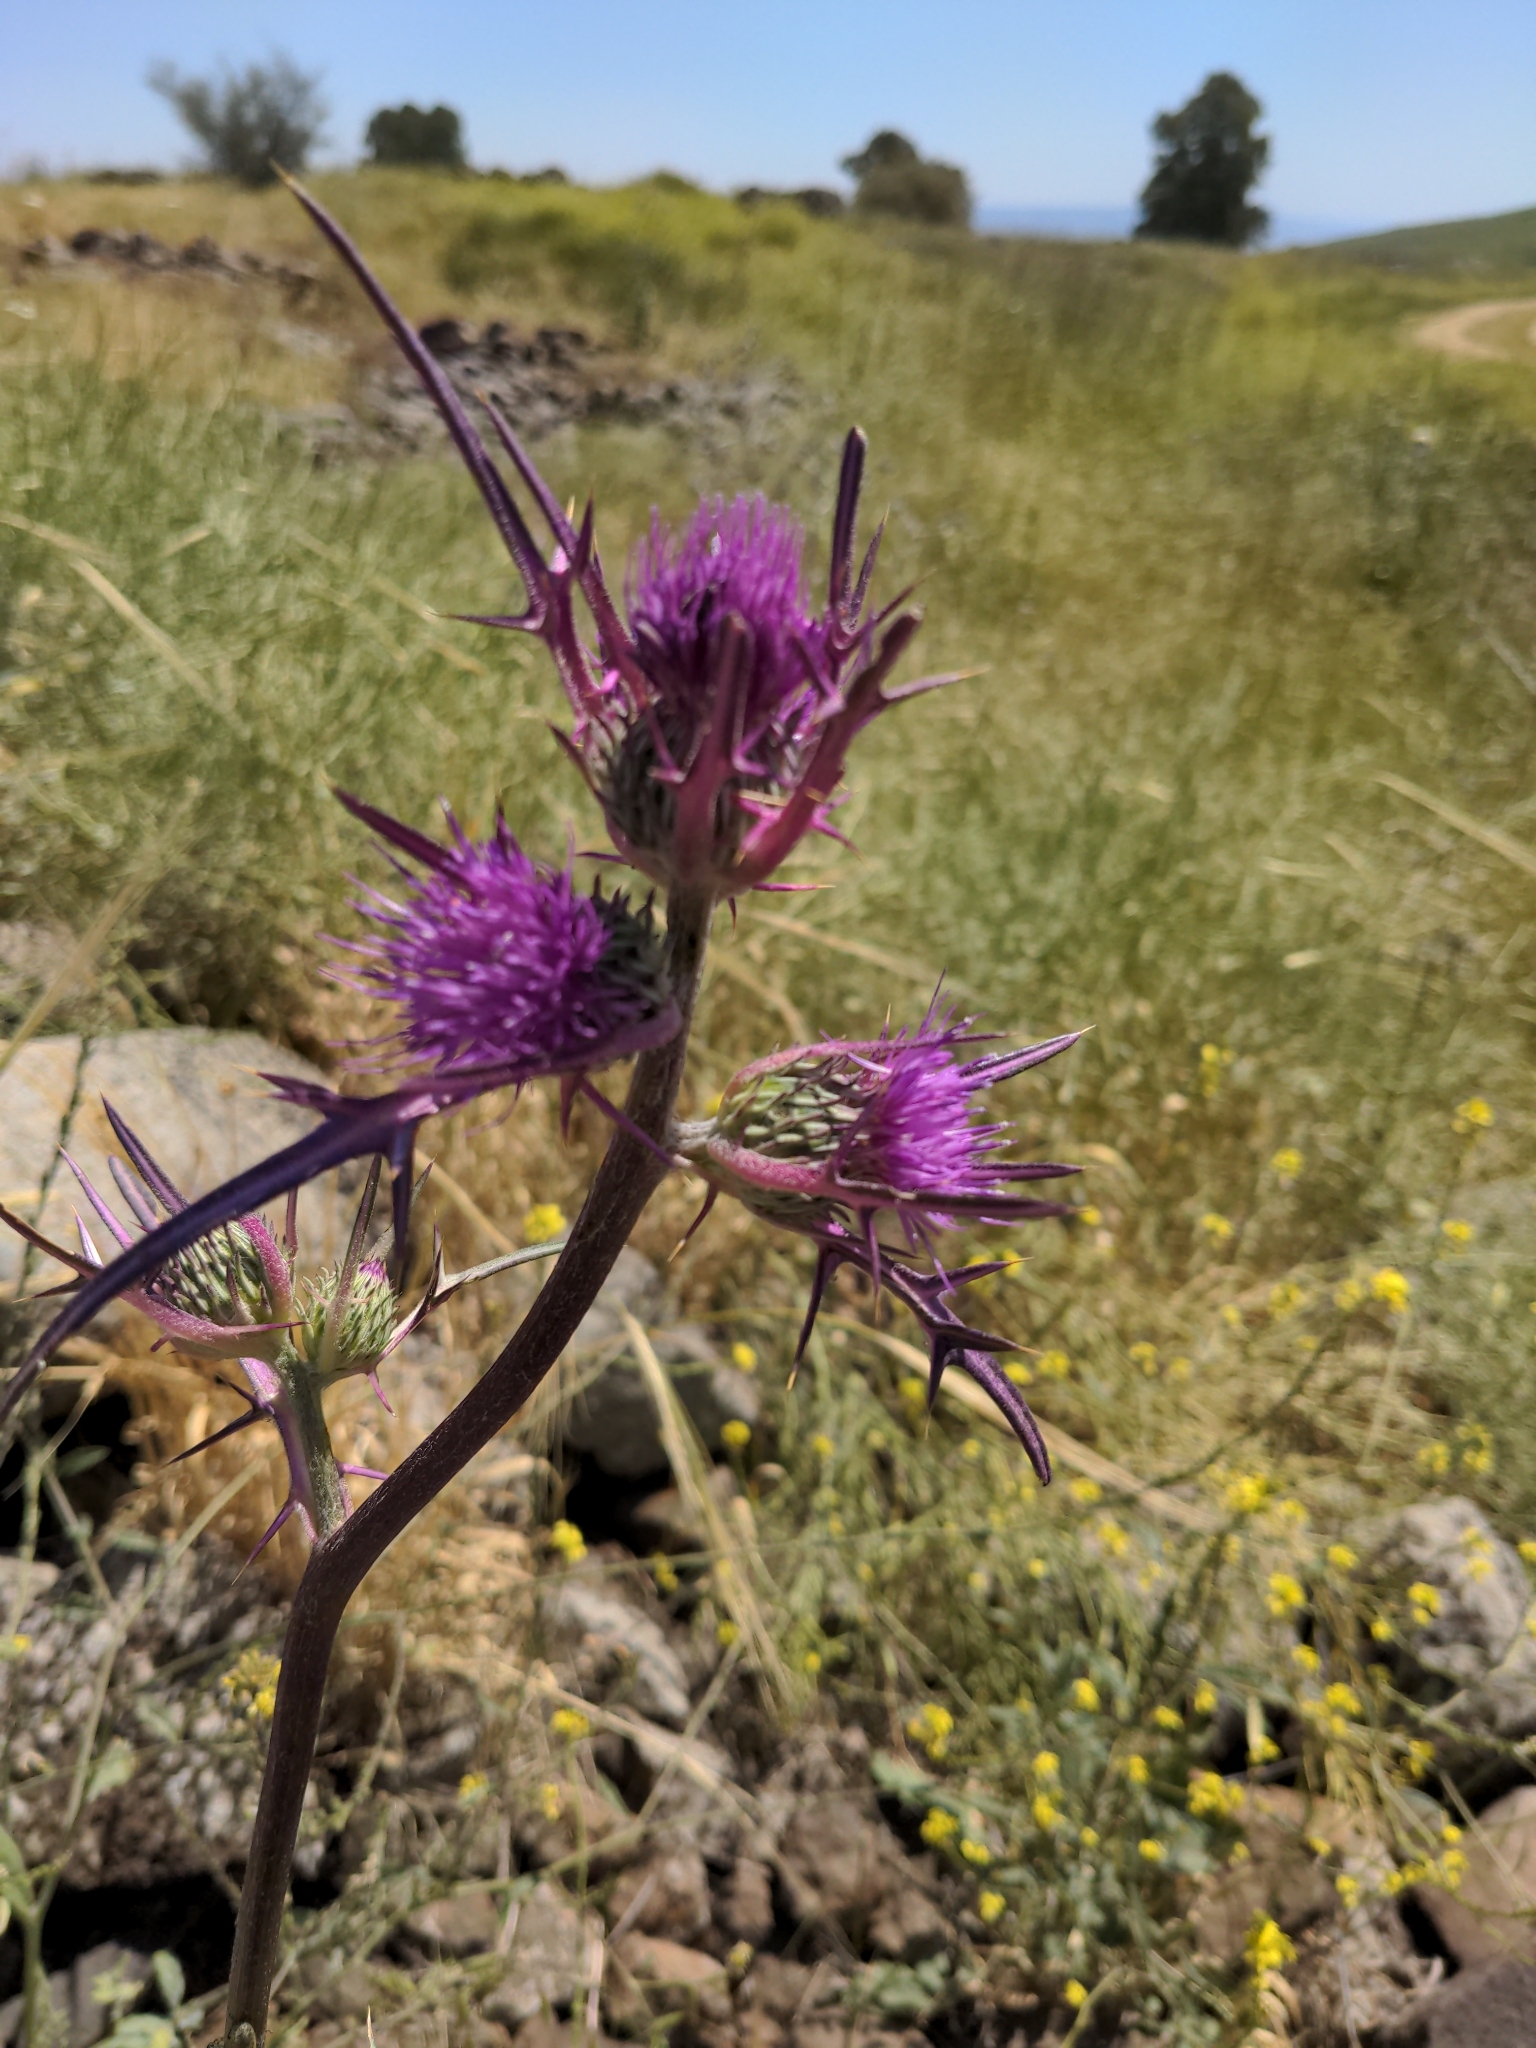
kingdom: Plantae
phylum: Tracheophyta
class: Magnoliopsida
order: Asterales
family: Asteraceae
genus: Notobasis
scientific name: Notobasis syriaca
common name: Syrian thistle
